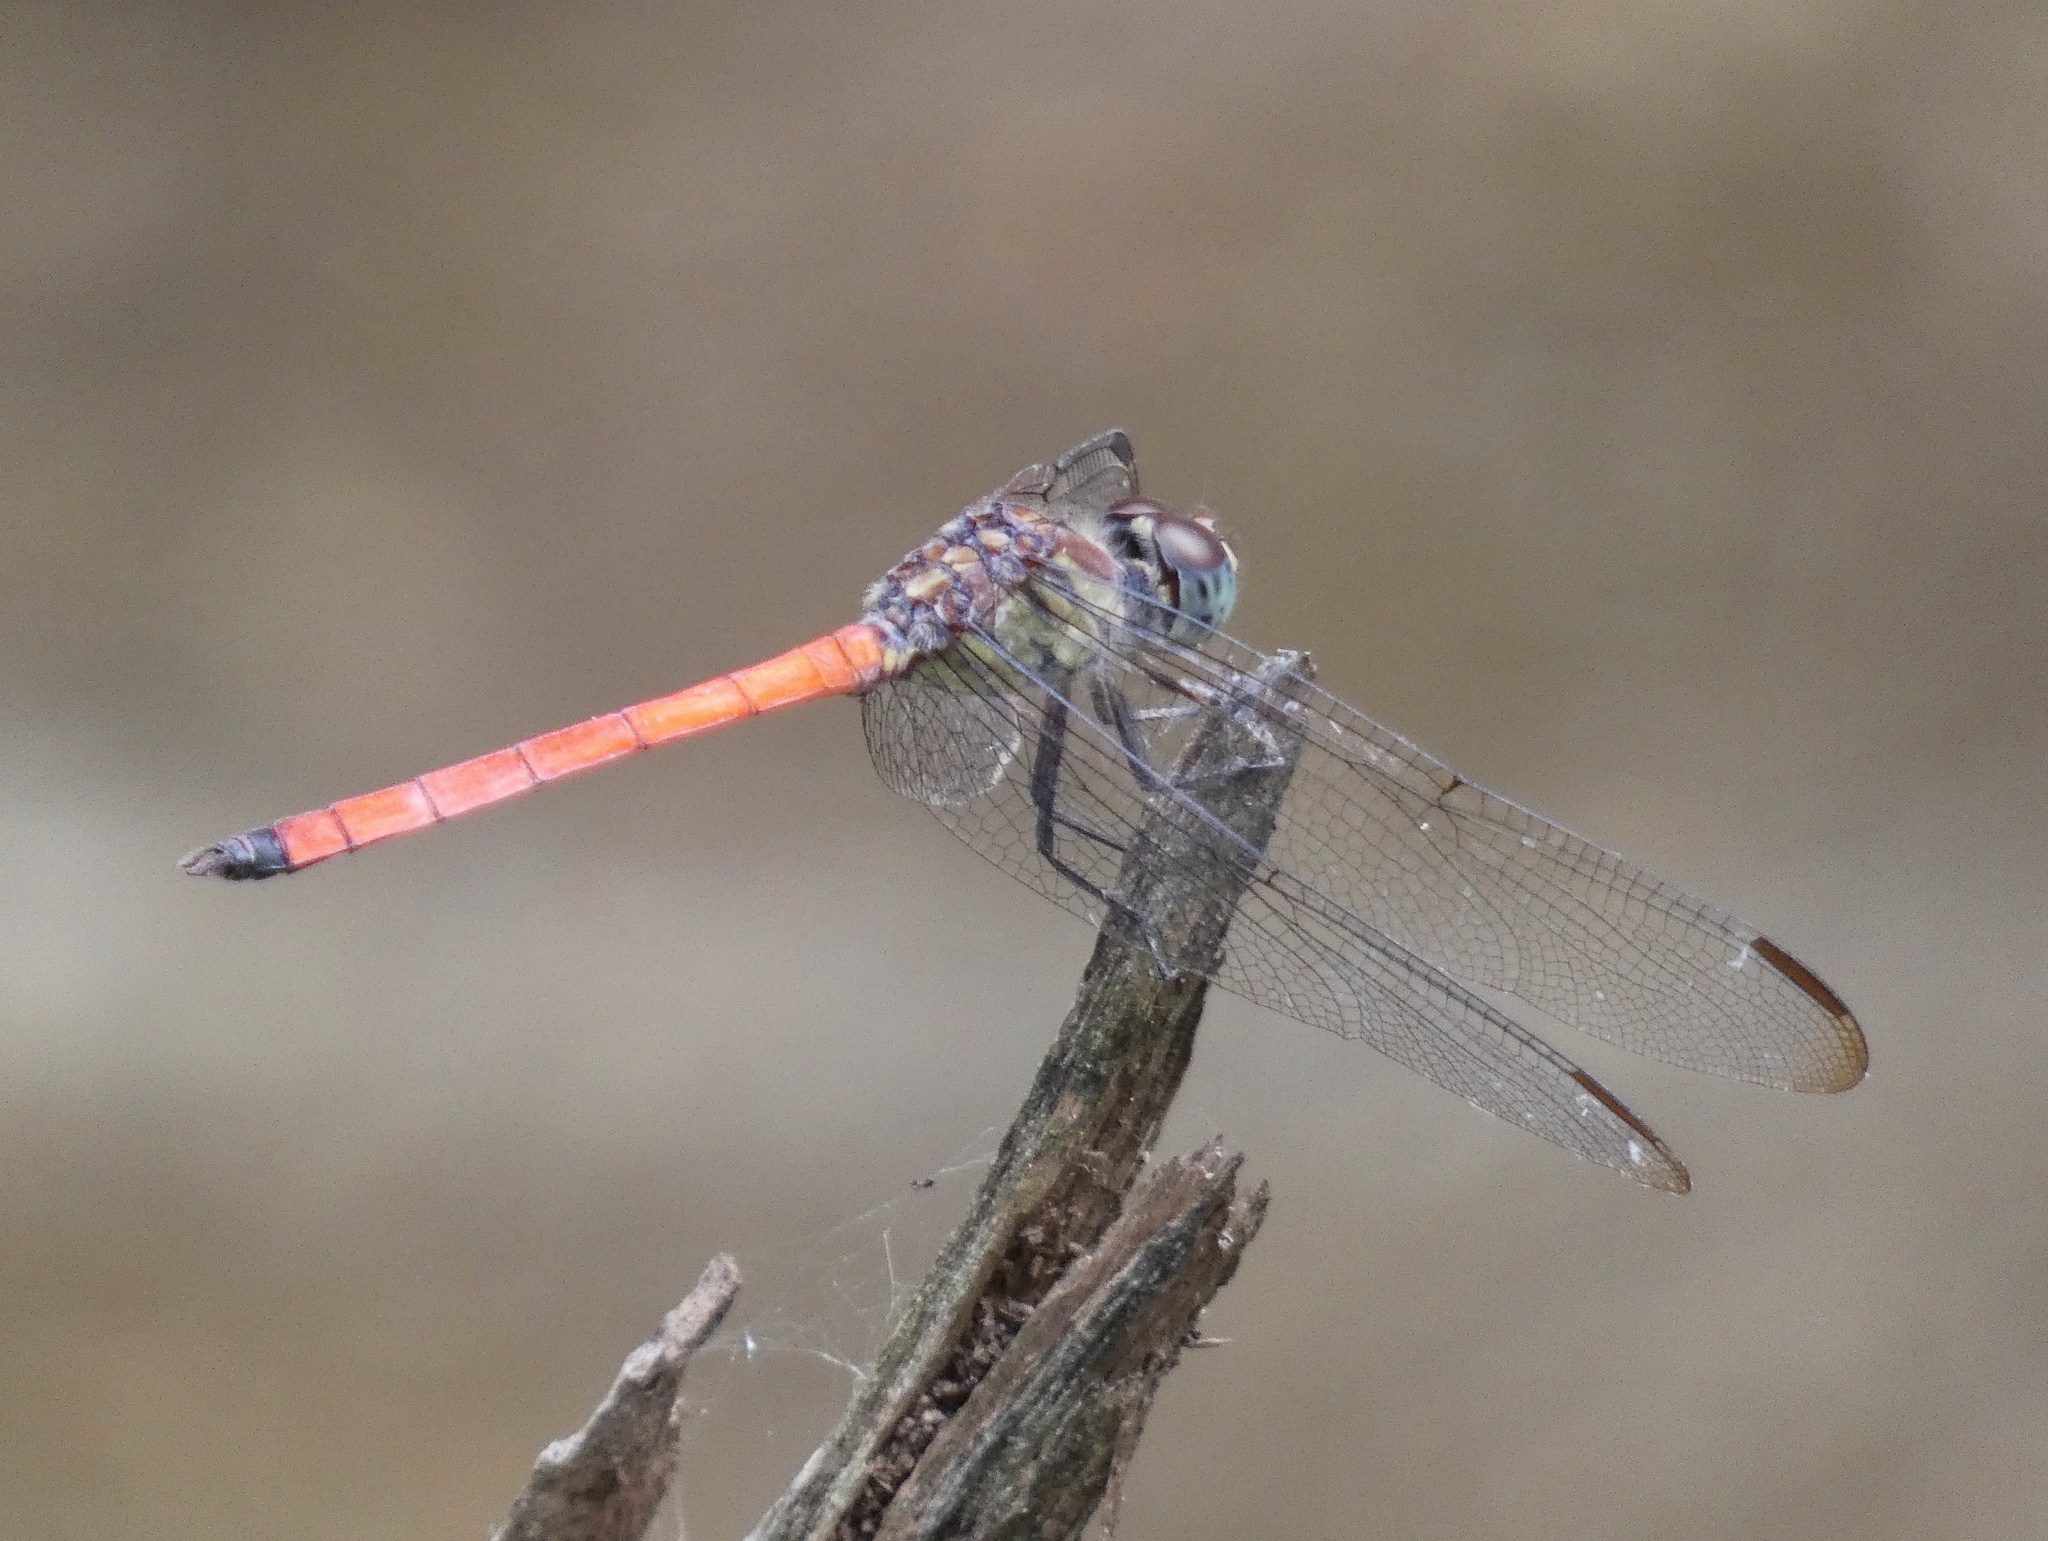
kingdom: Animalia
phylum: Arthropoda
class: Insecta
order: Odonata
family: Libellulidae
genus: Lathrecista
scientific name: Lathrecista asiatica
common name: Scarlet grenadier
